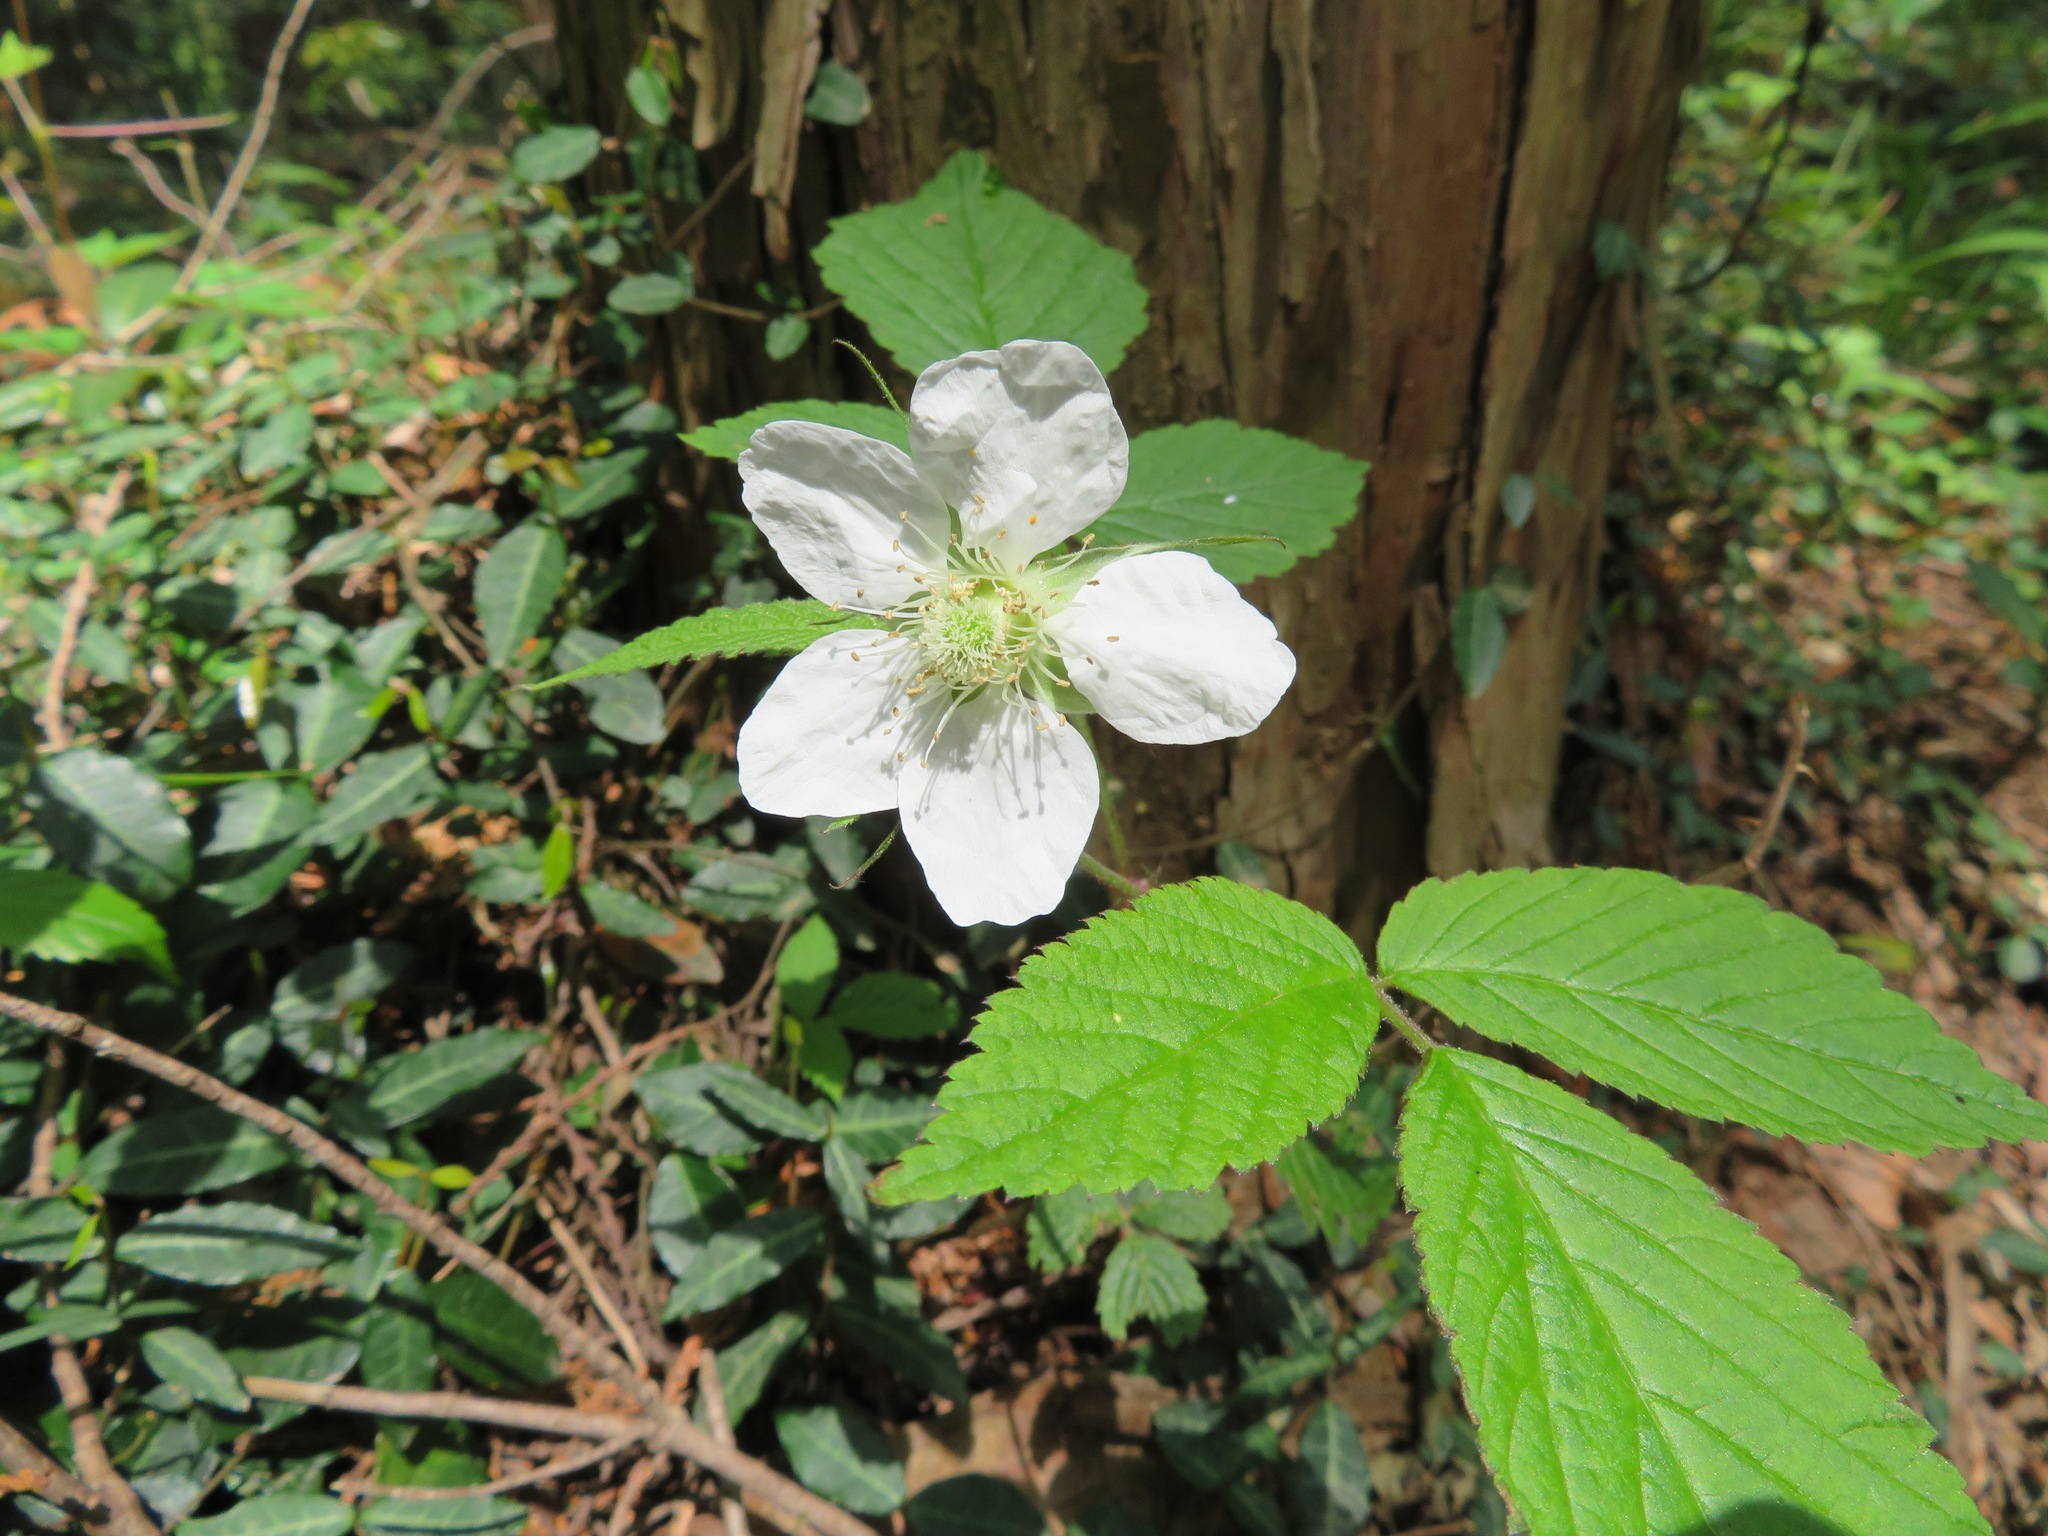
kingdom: Plantae
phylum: Tracheophyta
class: Magnoliopsida
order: Rosales
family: Rosaceae
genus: Rubus
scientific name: Rubus hirsutus
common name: Hirsute raspberry
